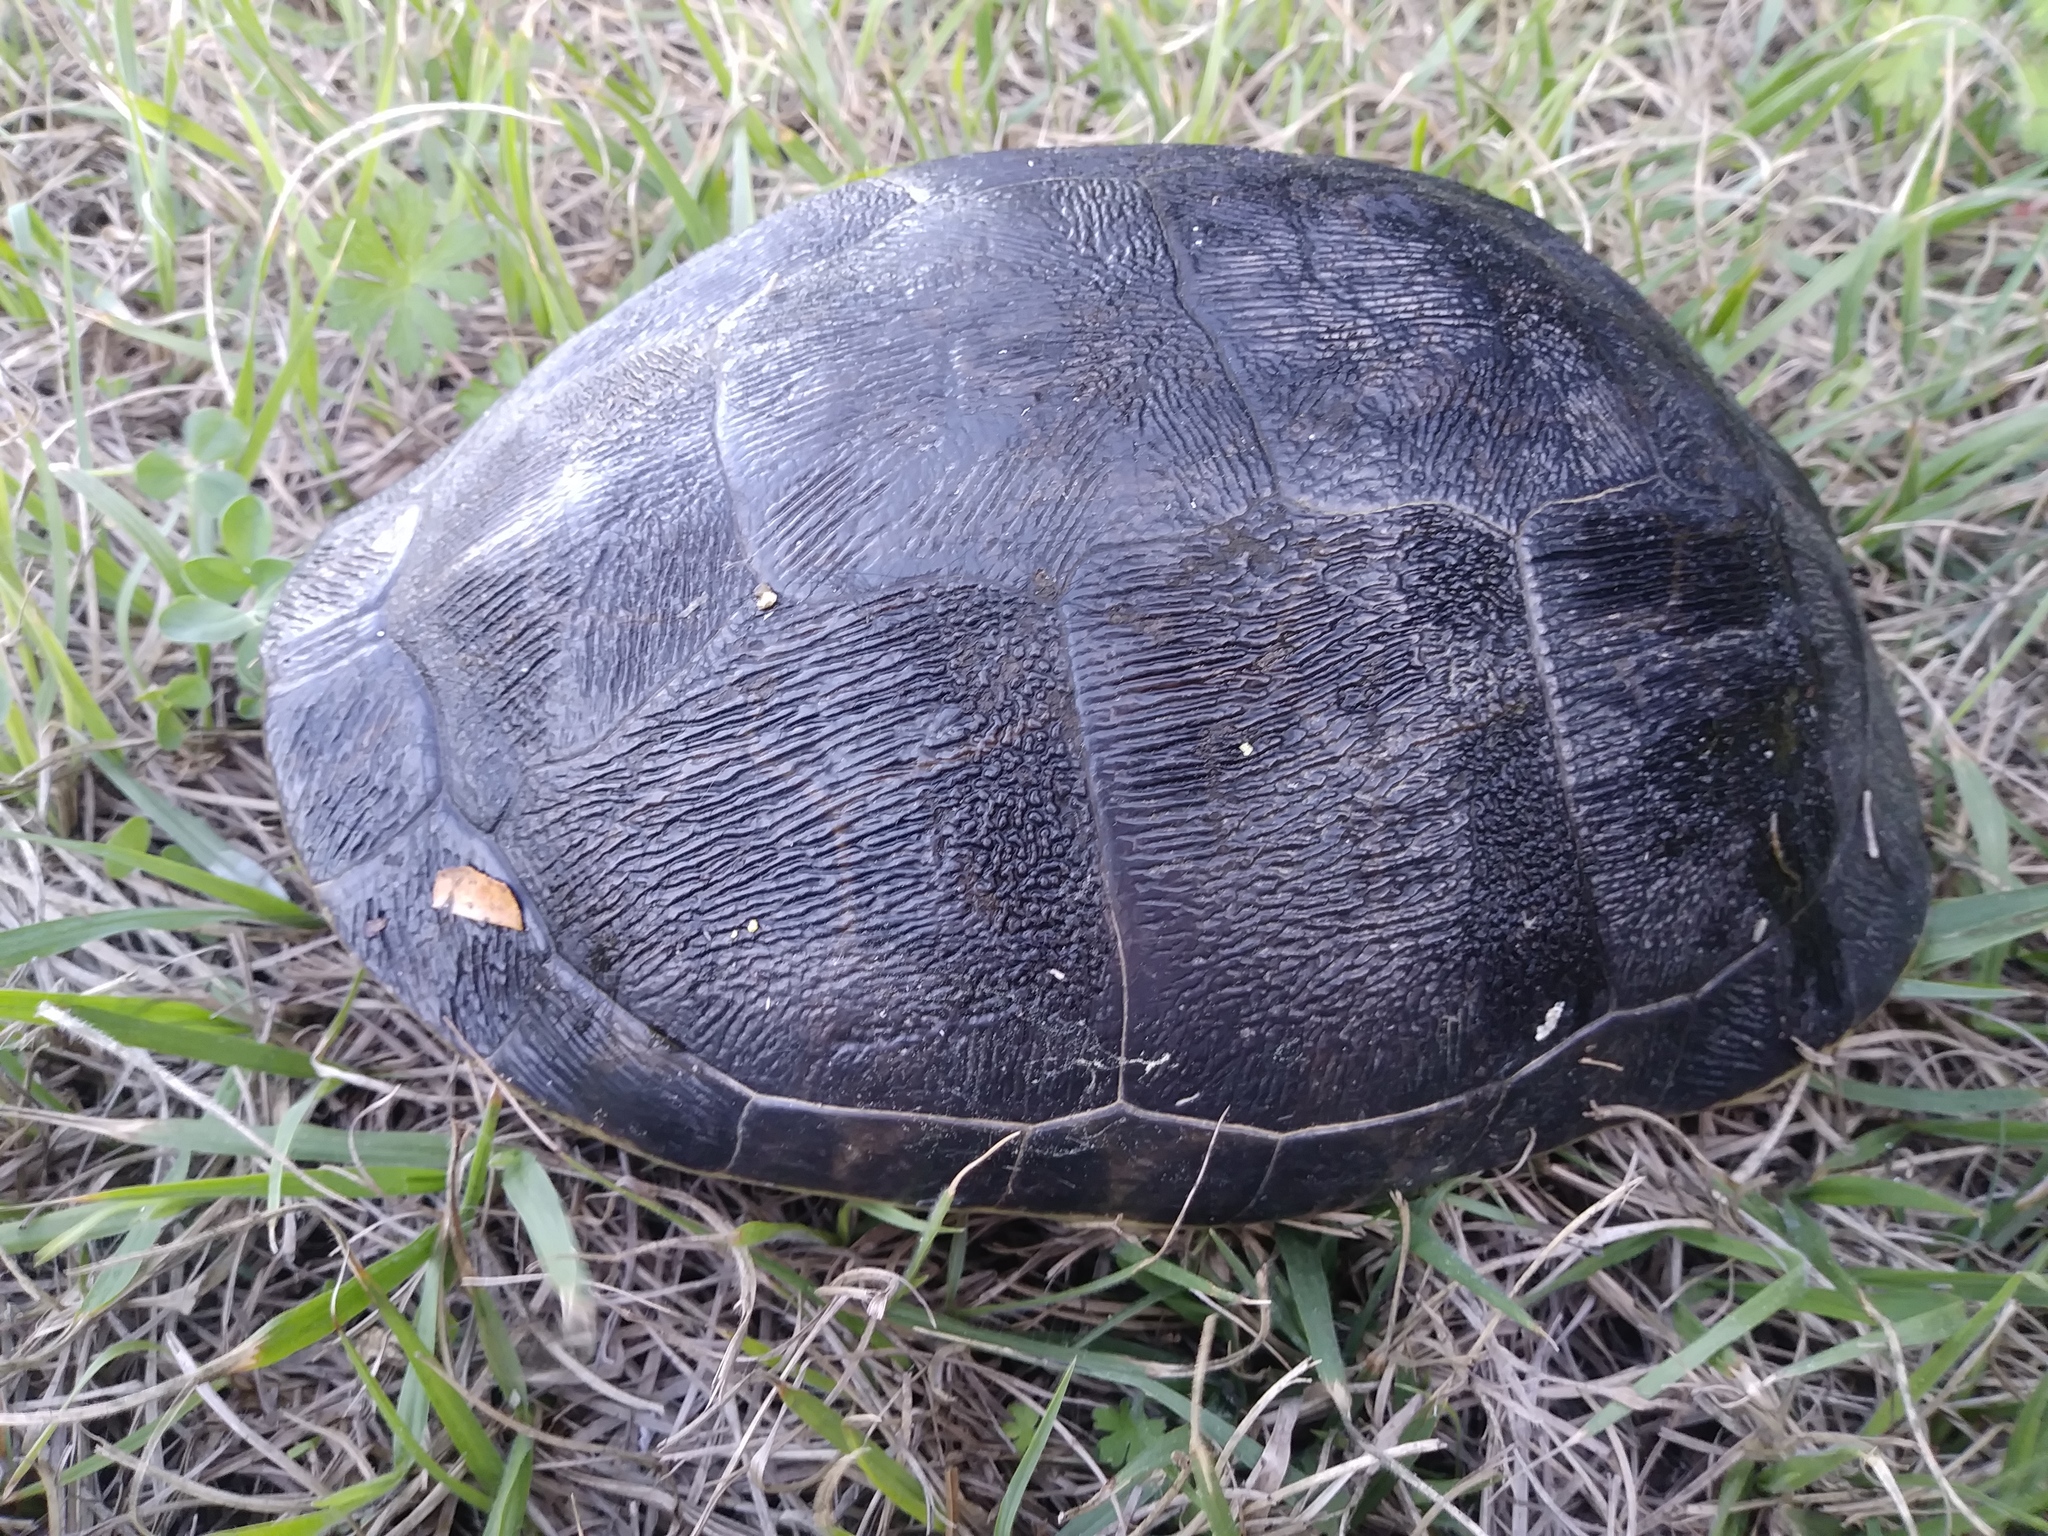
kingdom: Animalia
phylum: Chordata
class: Testudines
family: Emydidae
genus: Deirochelys
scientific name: Deirochelys reticularia
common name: Chicken turtle
